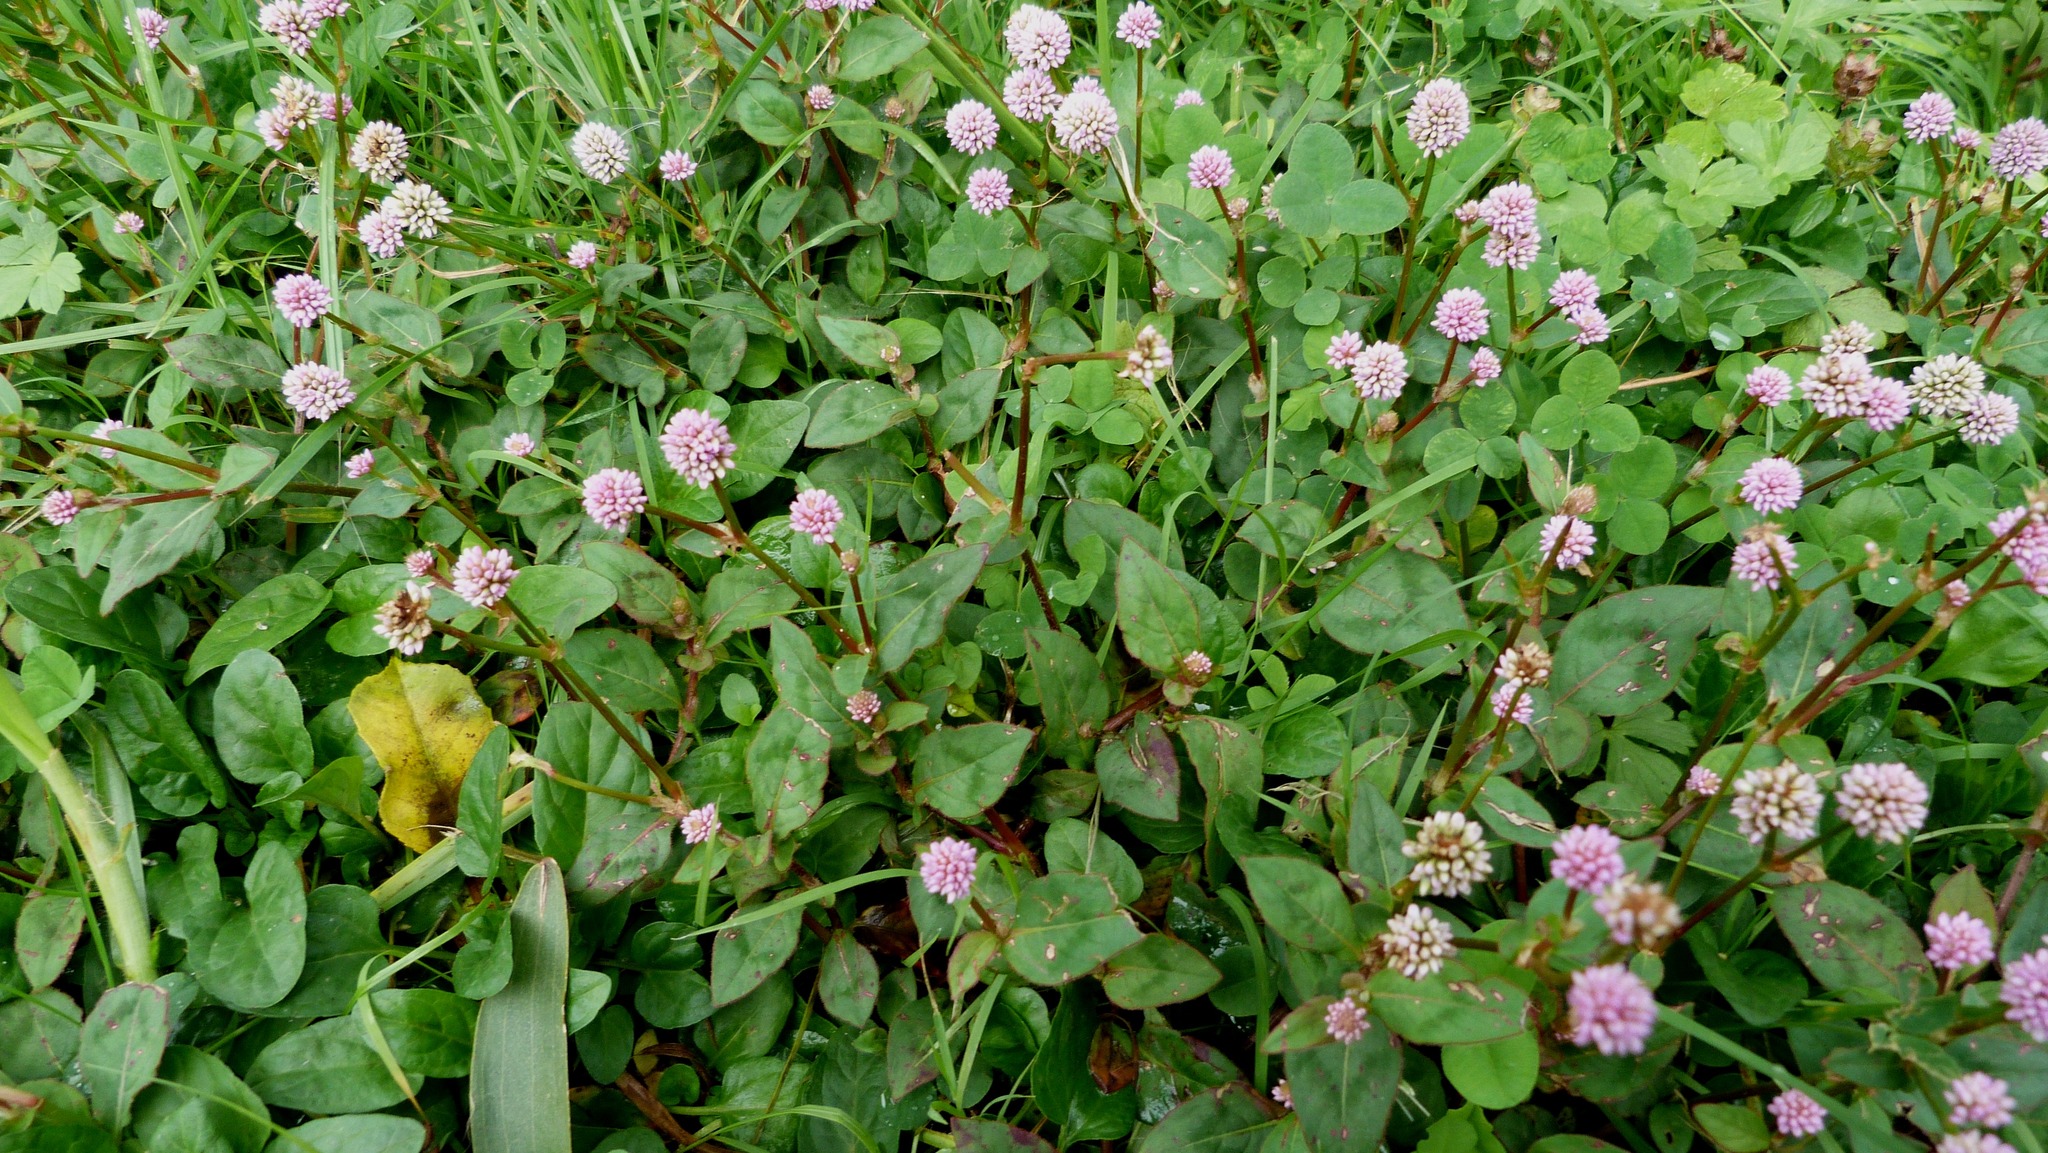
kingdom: Plantae
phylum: Tracheophyta
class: Magnoliopsida
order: Caryophyllales
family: Polygonaceae
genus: Persicaria
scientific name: Persicaria capitata
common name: Pinkhead smartweed
